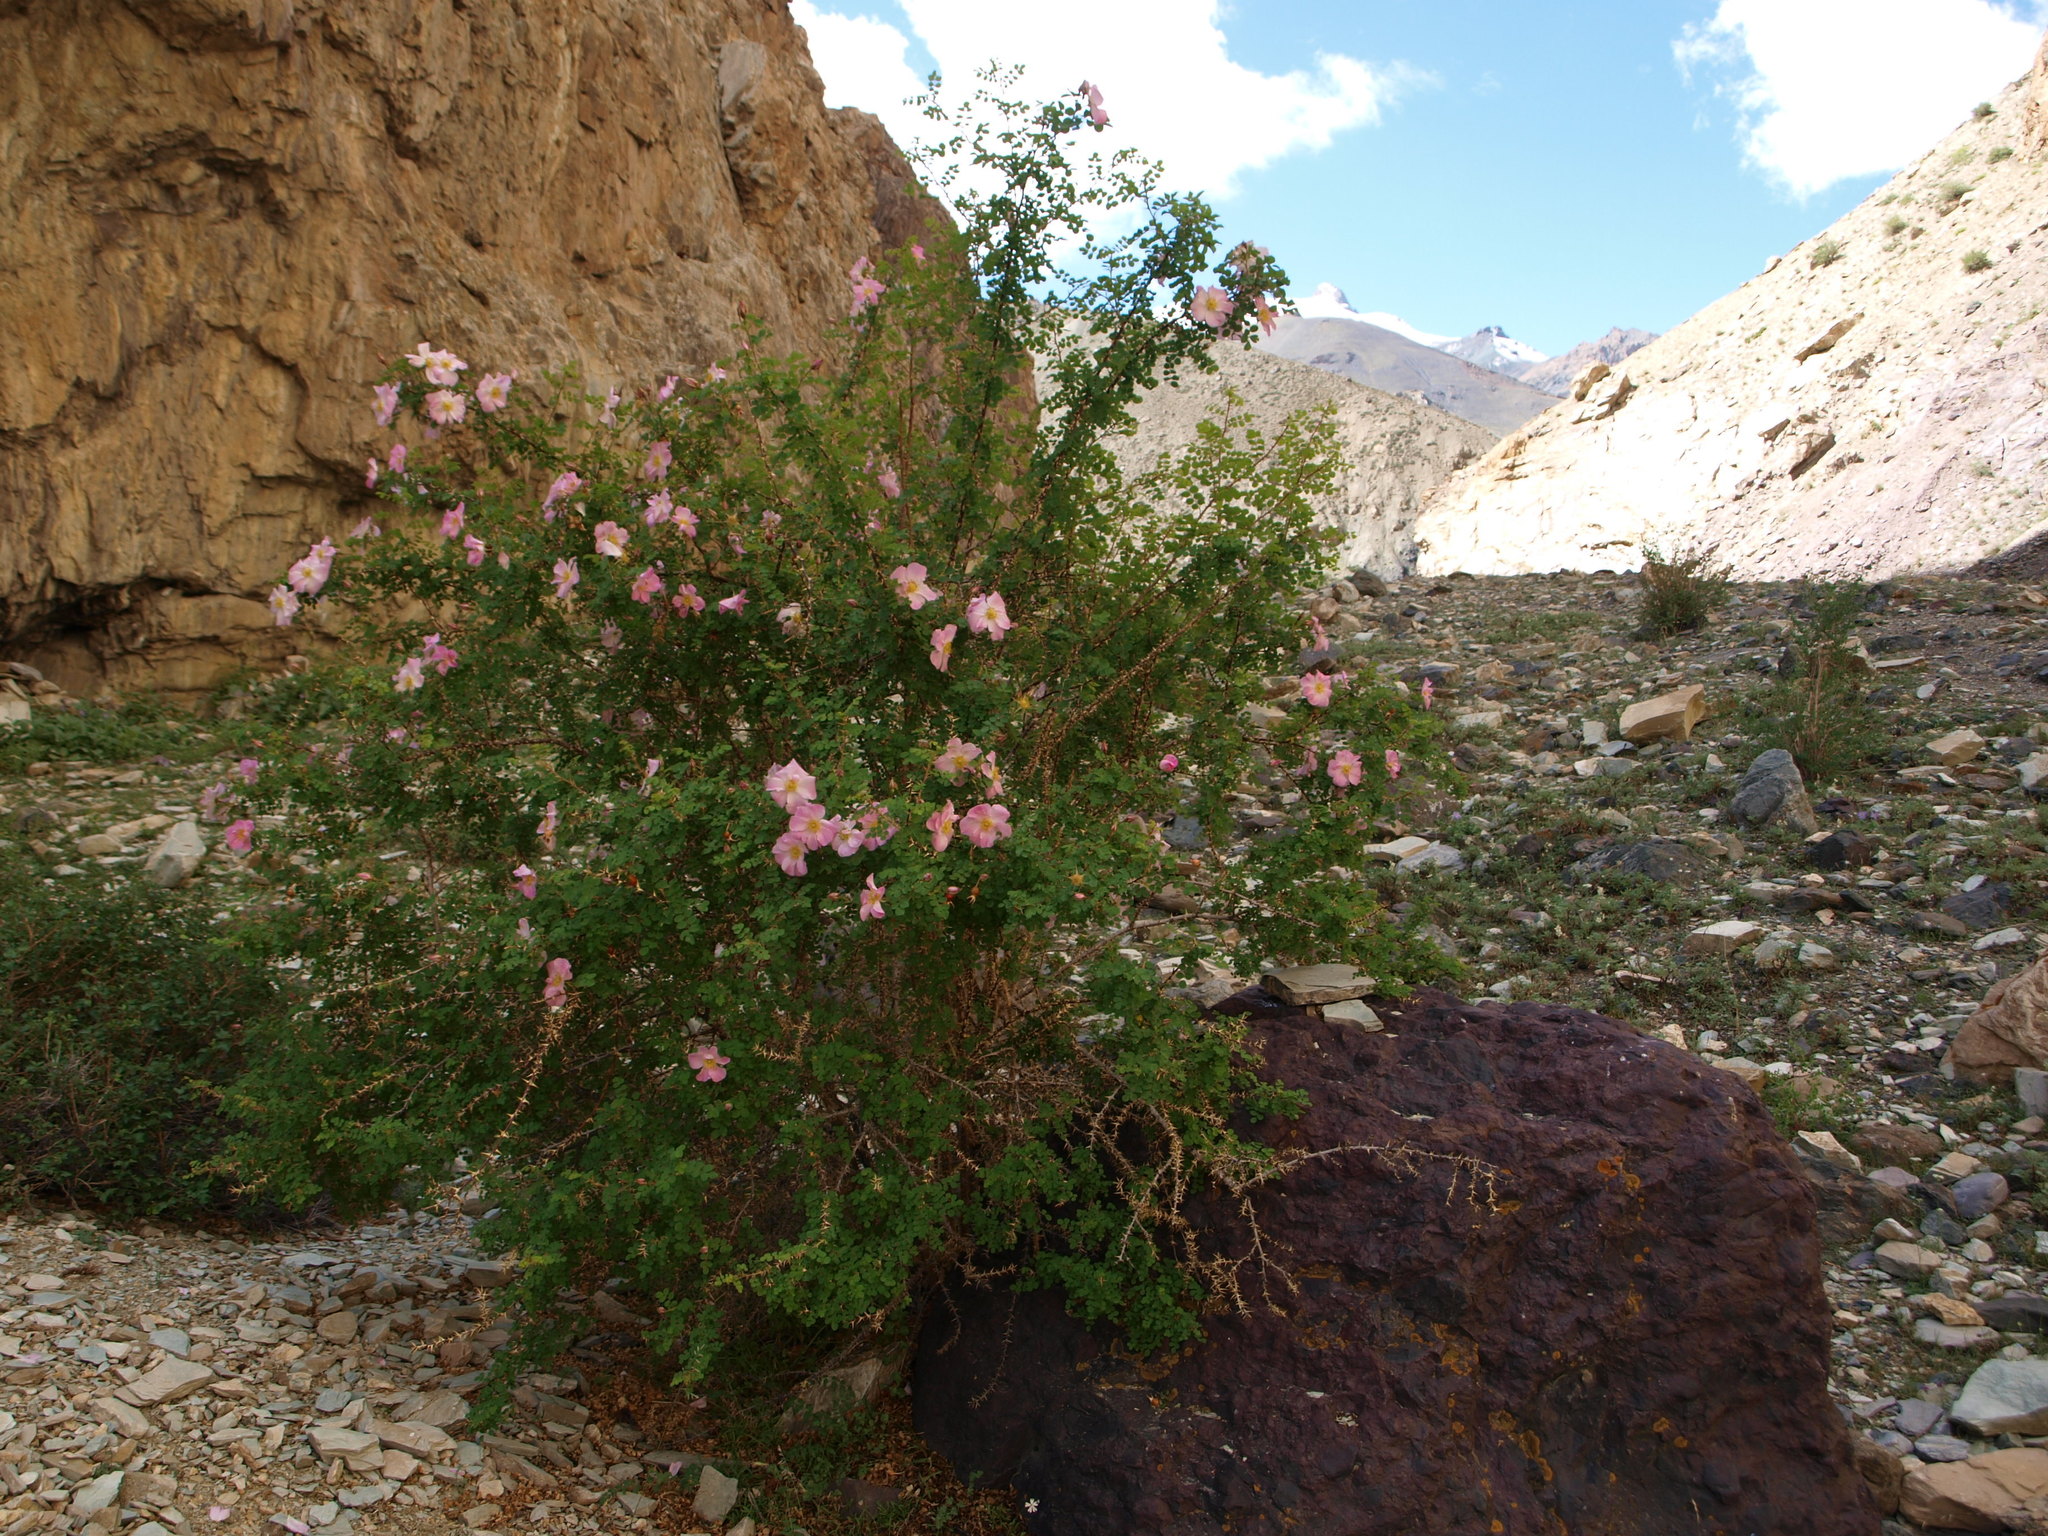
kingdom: Plantae
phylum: Tracheophyta
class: Magnoliopsida
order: Rosales
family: Rosaceae
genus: Rosa
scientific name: Rosa webbiana
